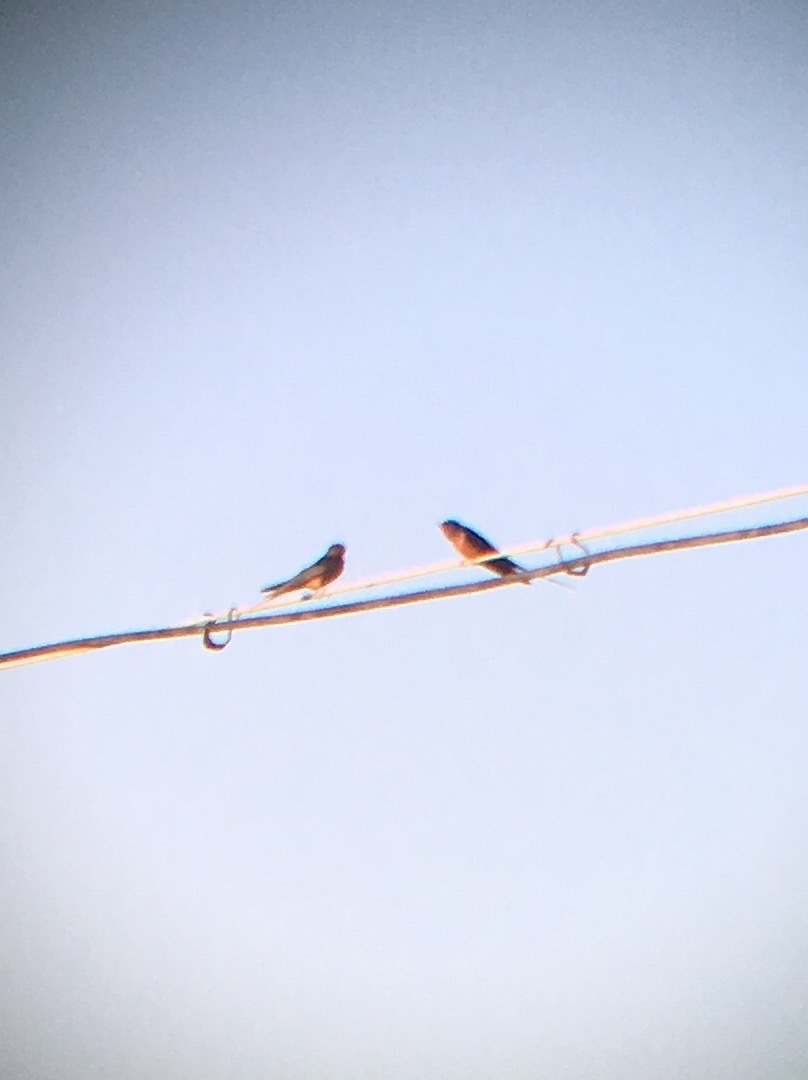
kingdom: Animalia
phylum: Chordata
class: Aves
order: Passeriformes
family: Hirundinidae
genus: Hirundo
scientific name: Hirundo rustica
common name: Barn swallow
